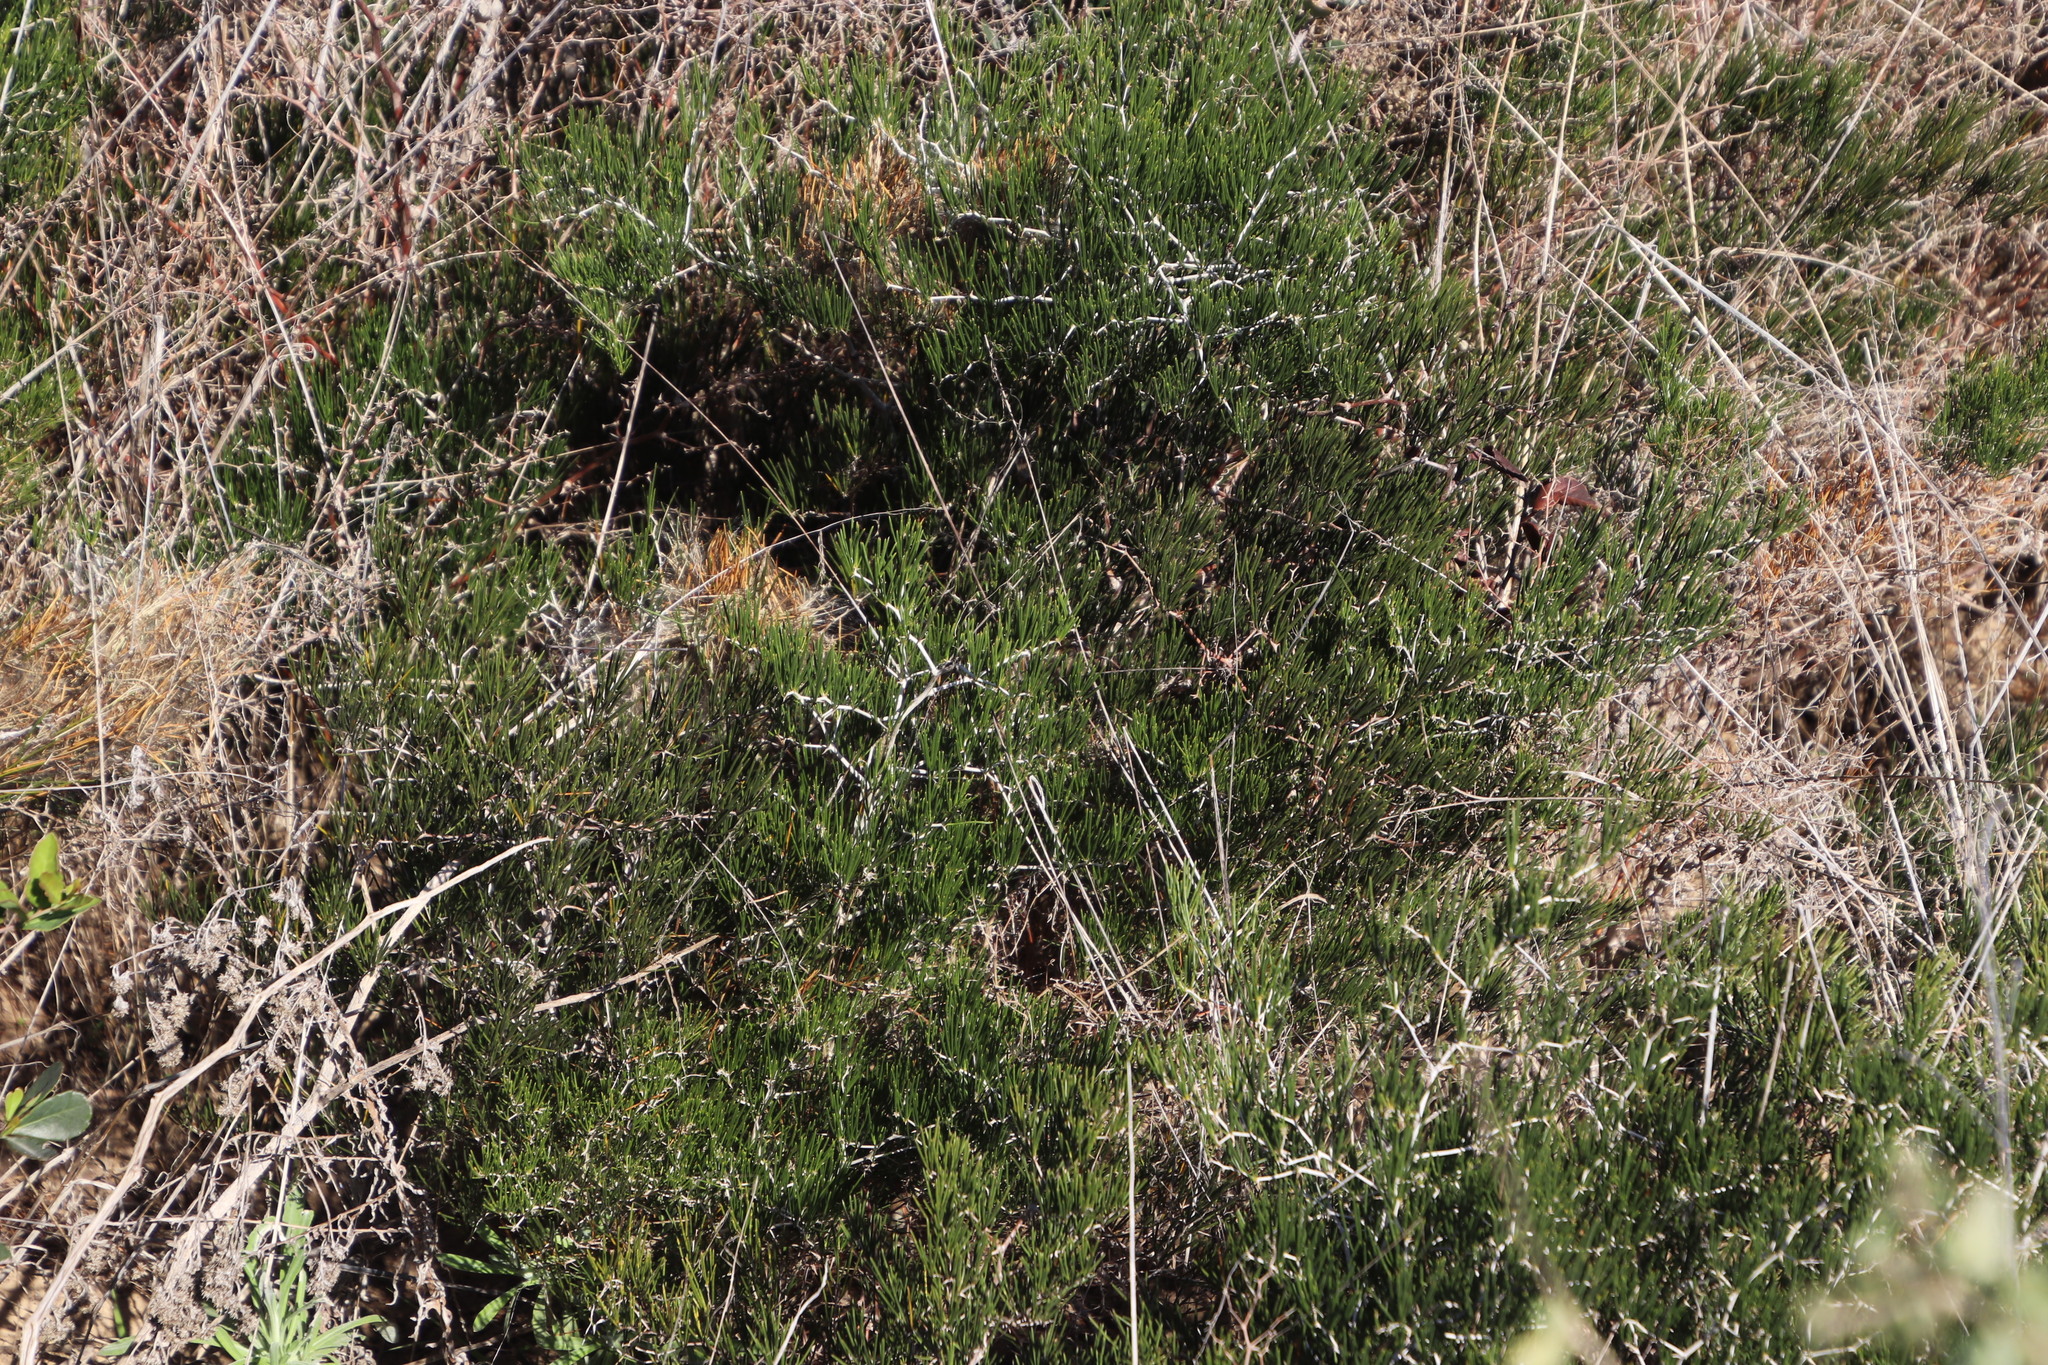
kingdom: Plantae
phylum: Tracheophyta
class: Liliopsida
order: Asparagales
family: Asparagaceae
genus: Asparagus
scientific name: Asparagus lignosus
